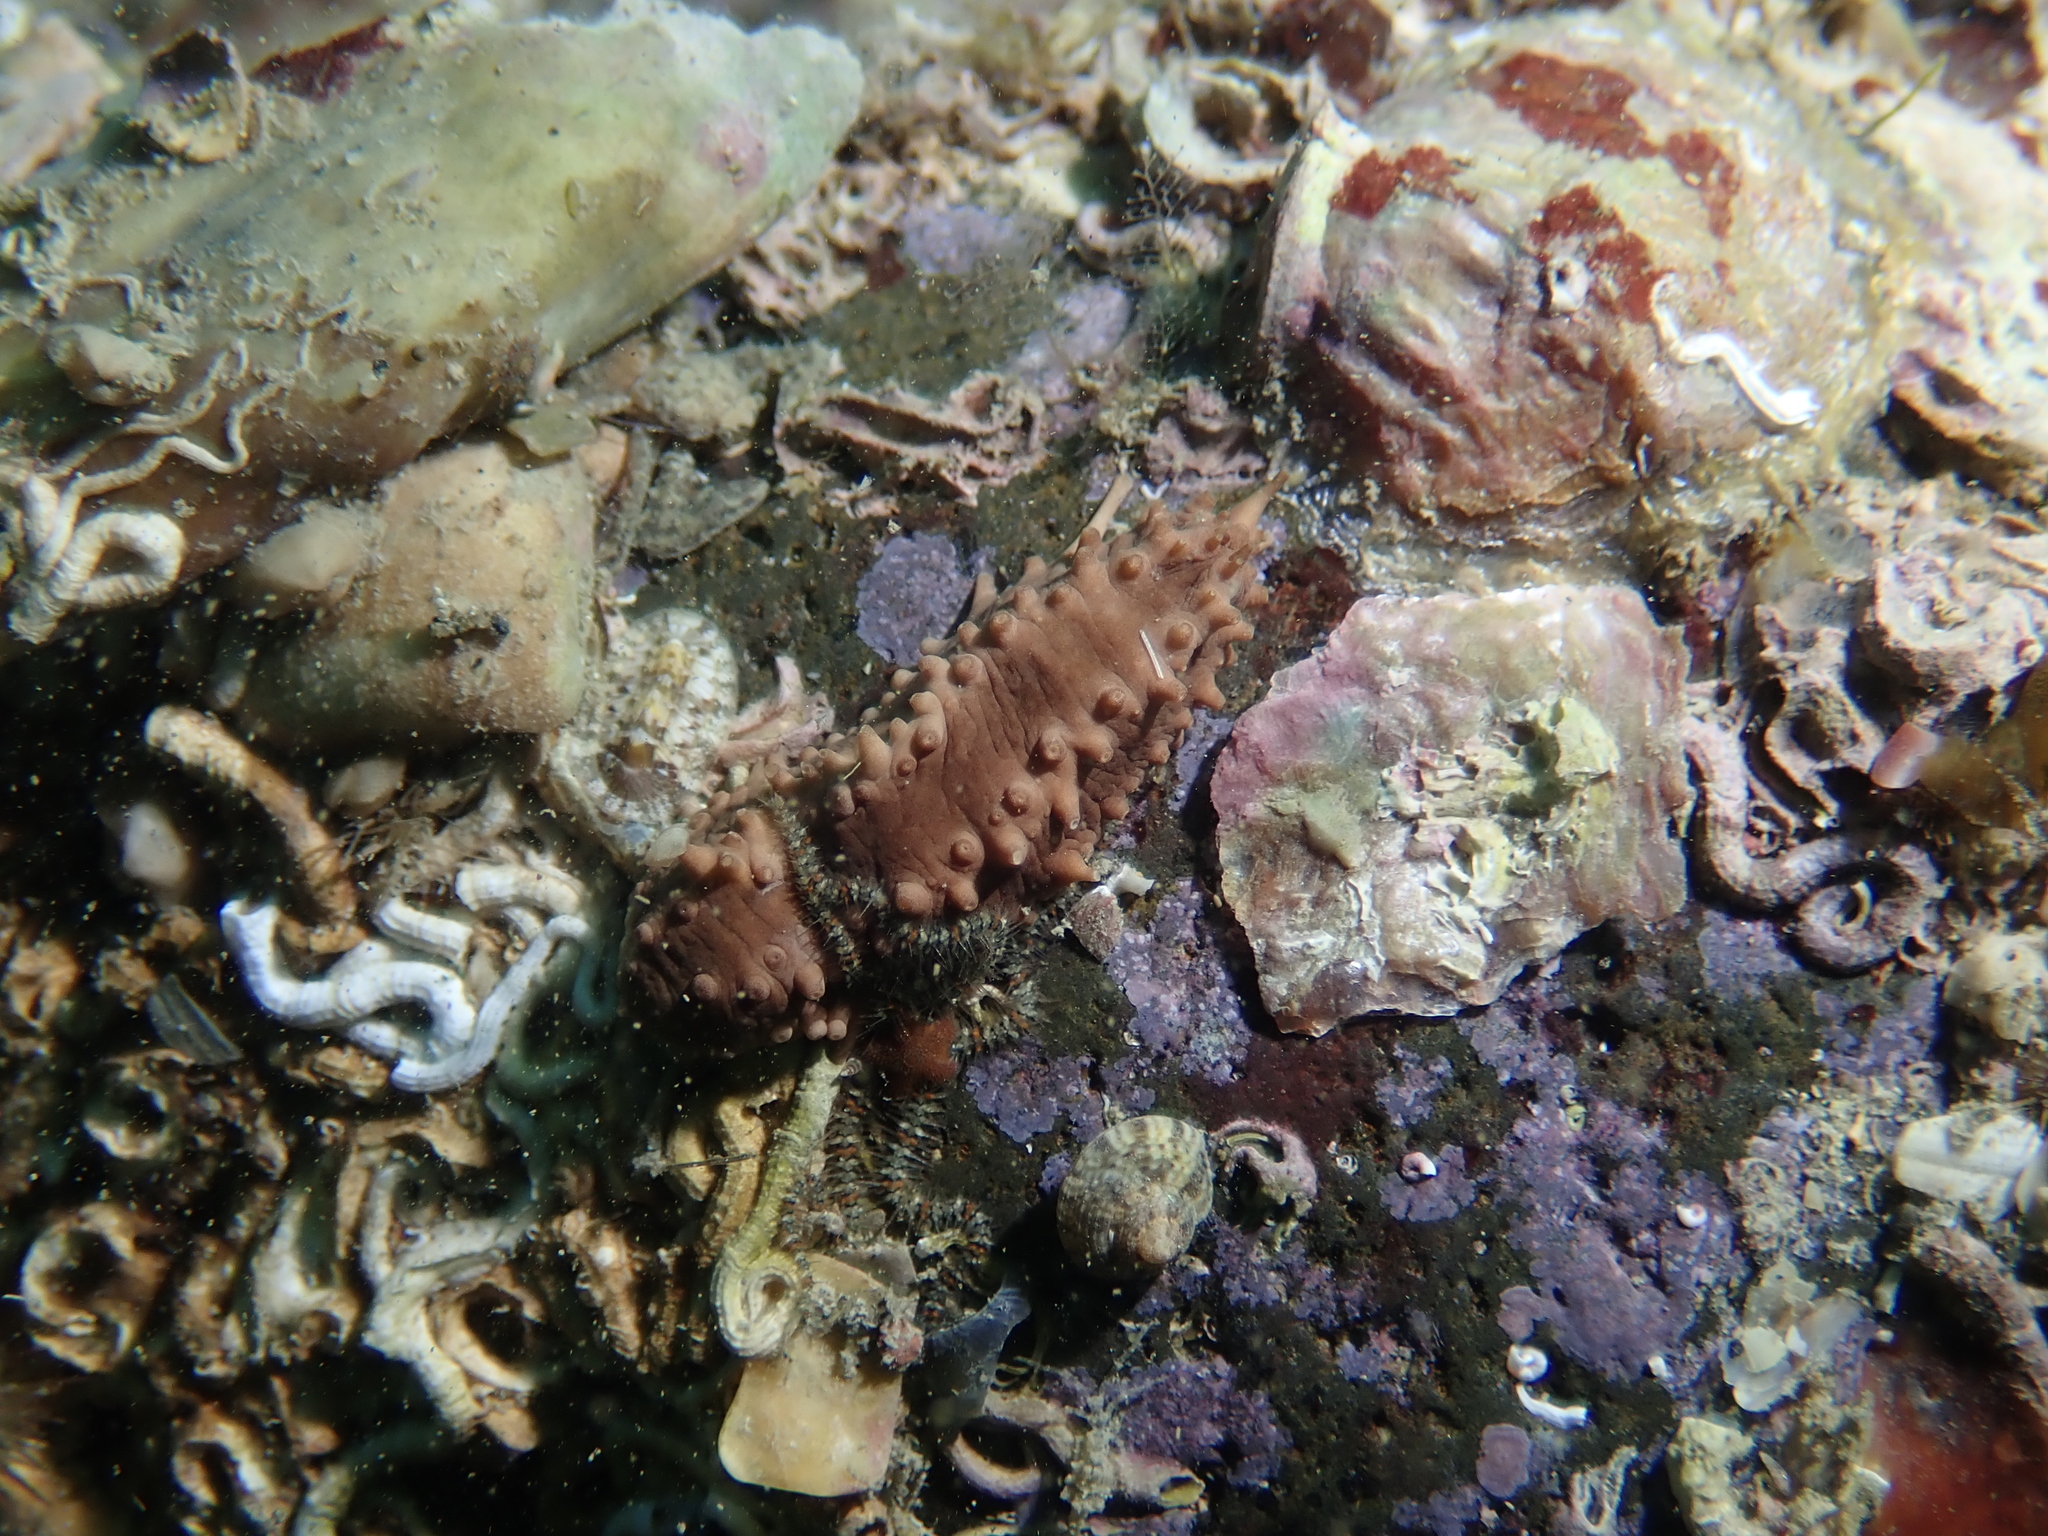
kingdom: Animalia
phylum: Echinodermata
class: Holothuroidea
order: Dendrochirotida
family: Cucumariidae
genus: Ocnus
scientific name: Ocnus planci
